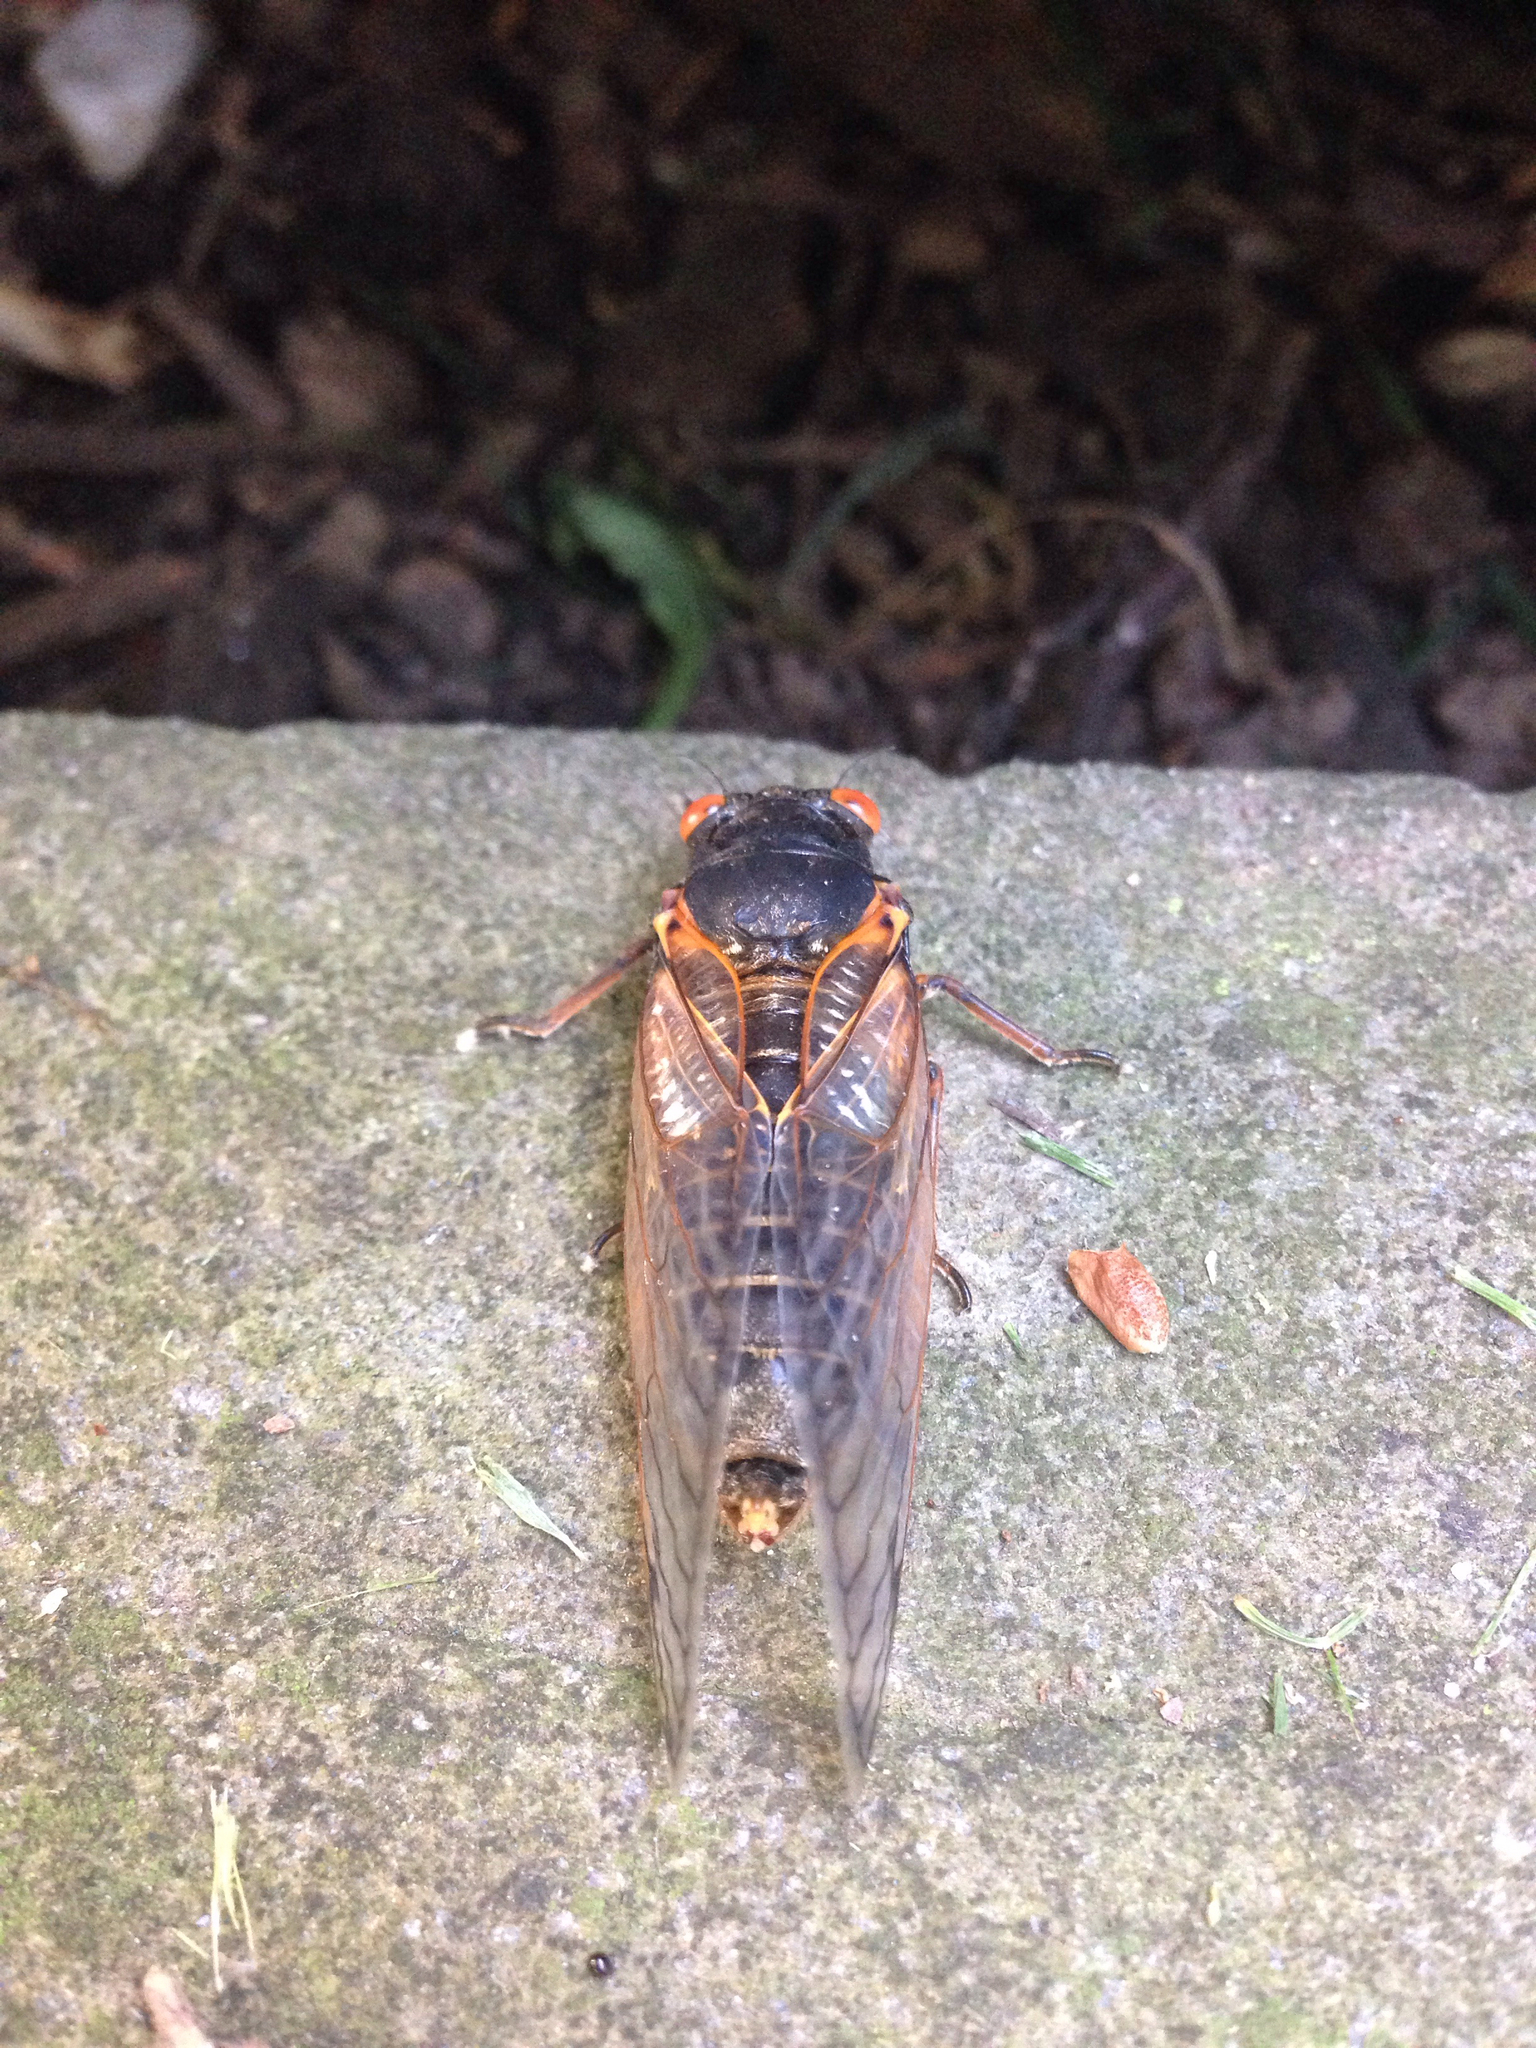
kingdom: Animalia
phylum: Arthropoda
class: Insecta
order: Hemiptera
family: Cicadidae
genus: Magicicada
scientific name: Magicicada
